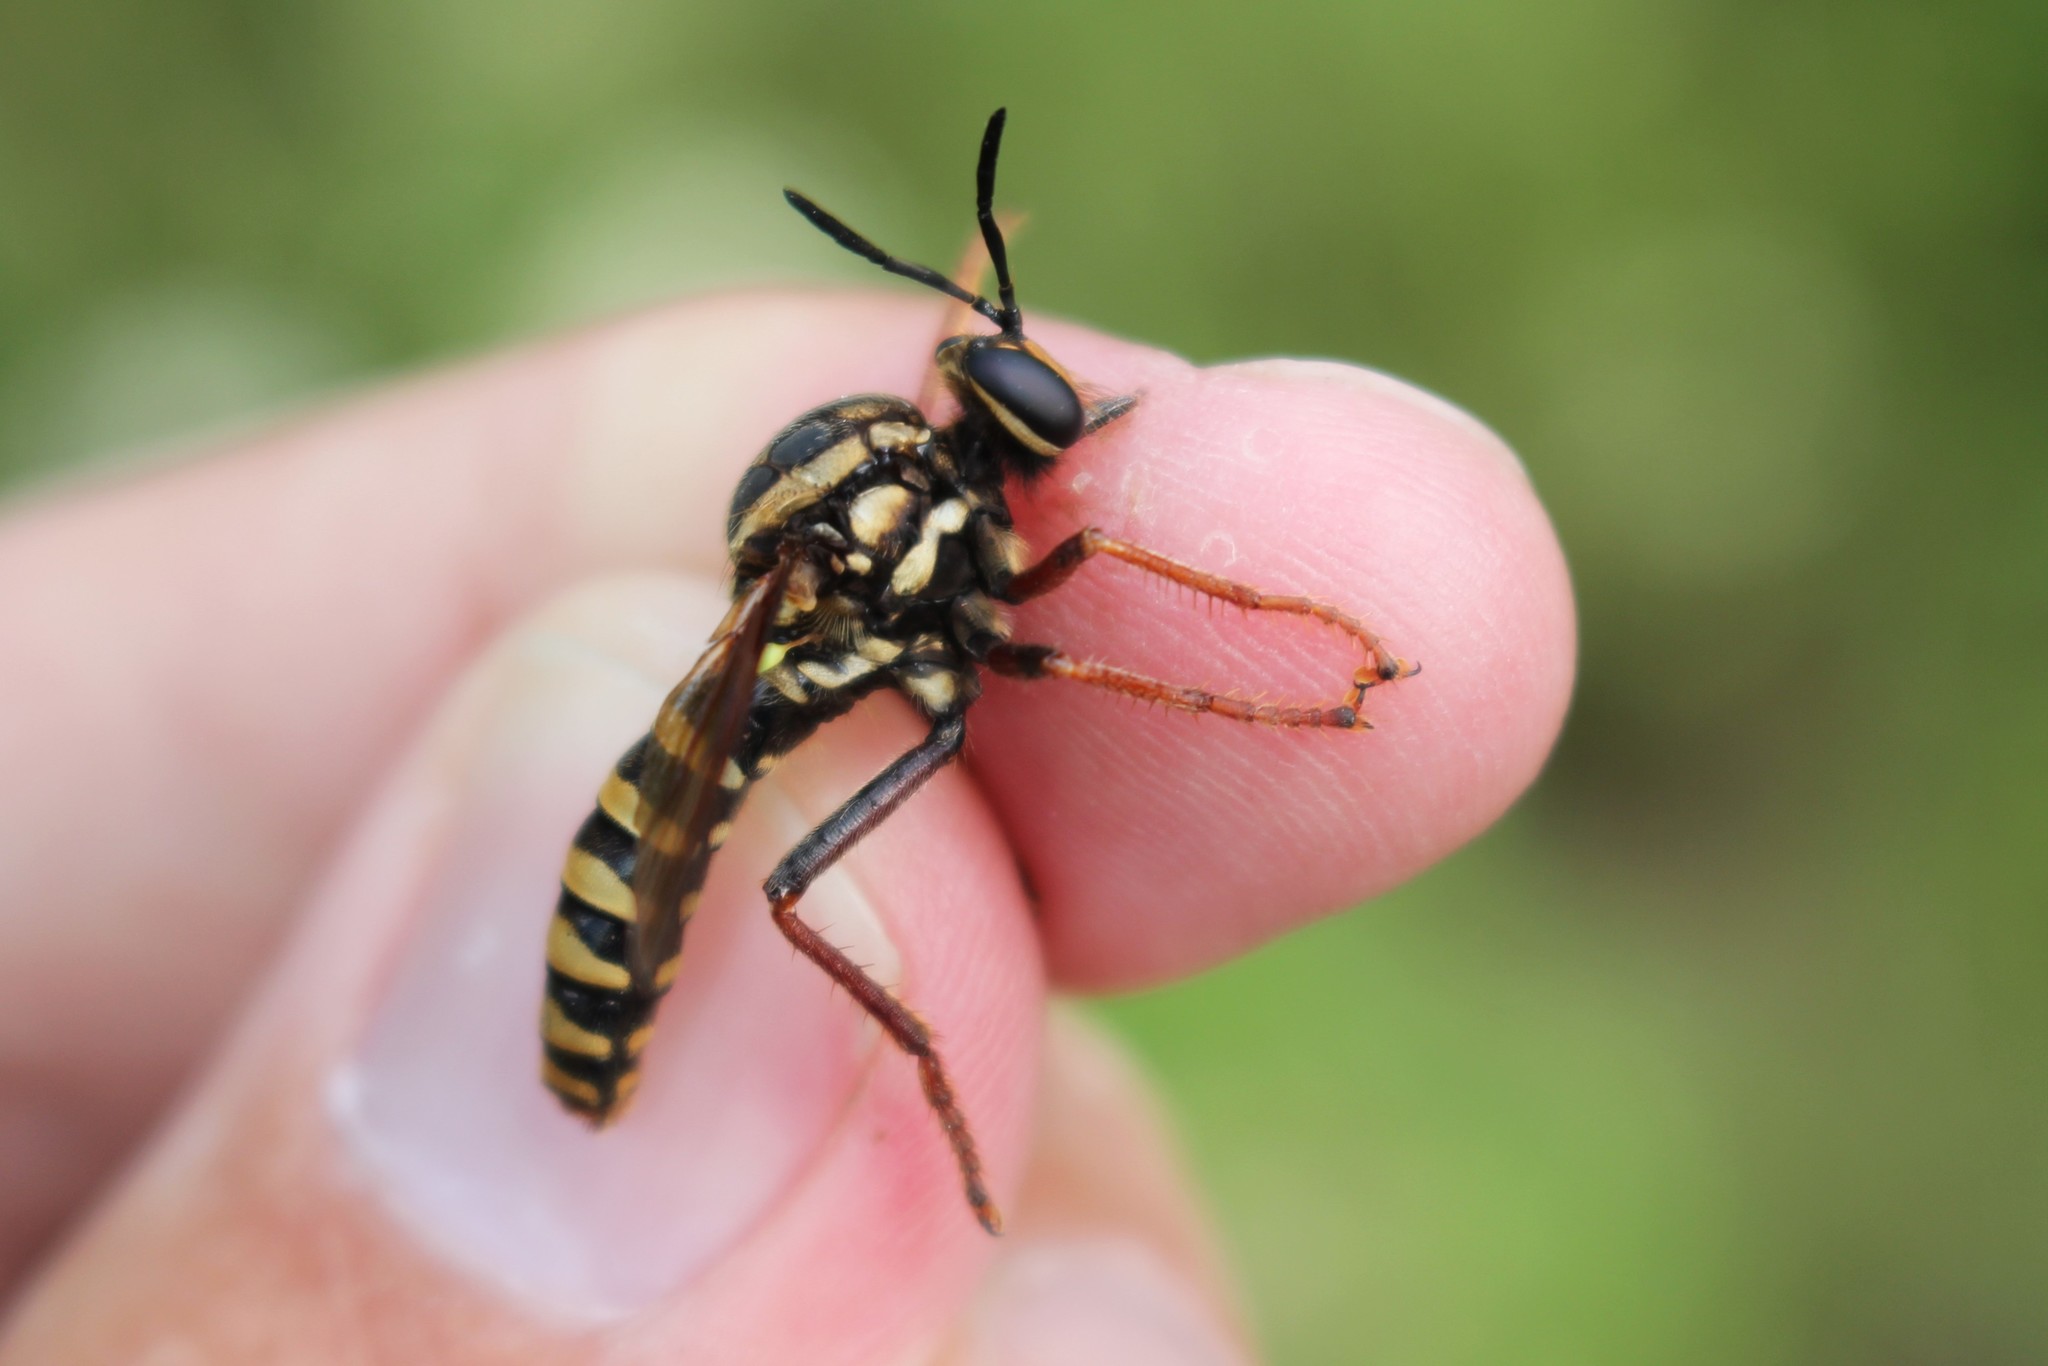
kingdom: Animalia
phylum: Arthropoda
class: Insecta
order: Diptera
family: Asilidae
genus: Ceraturgus
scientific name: Ceraturgus fasciatus
